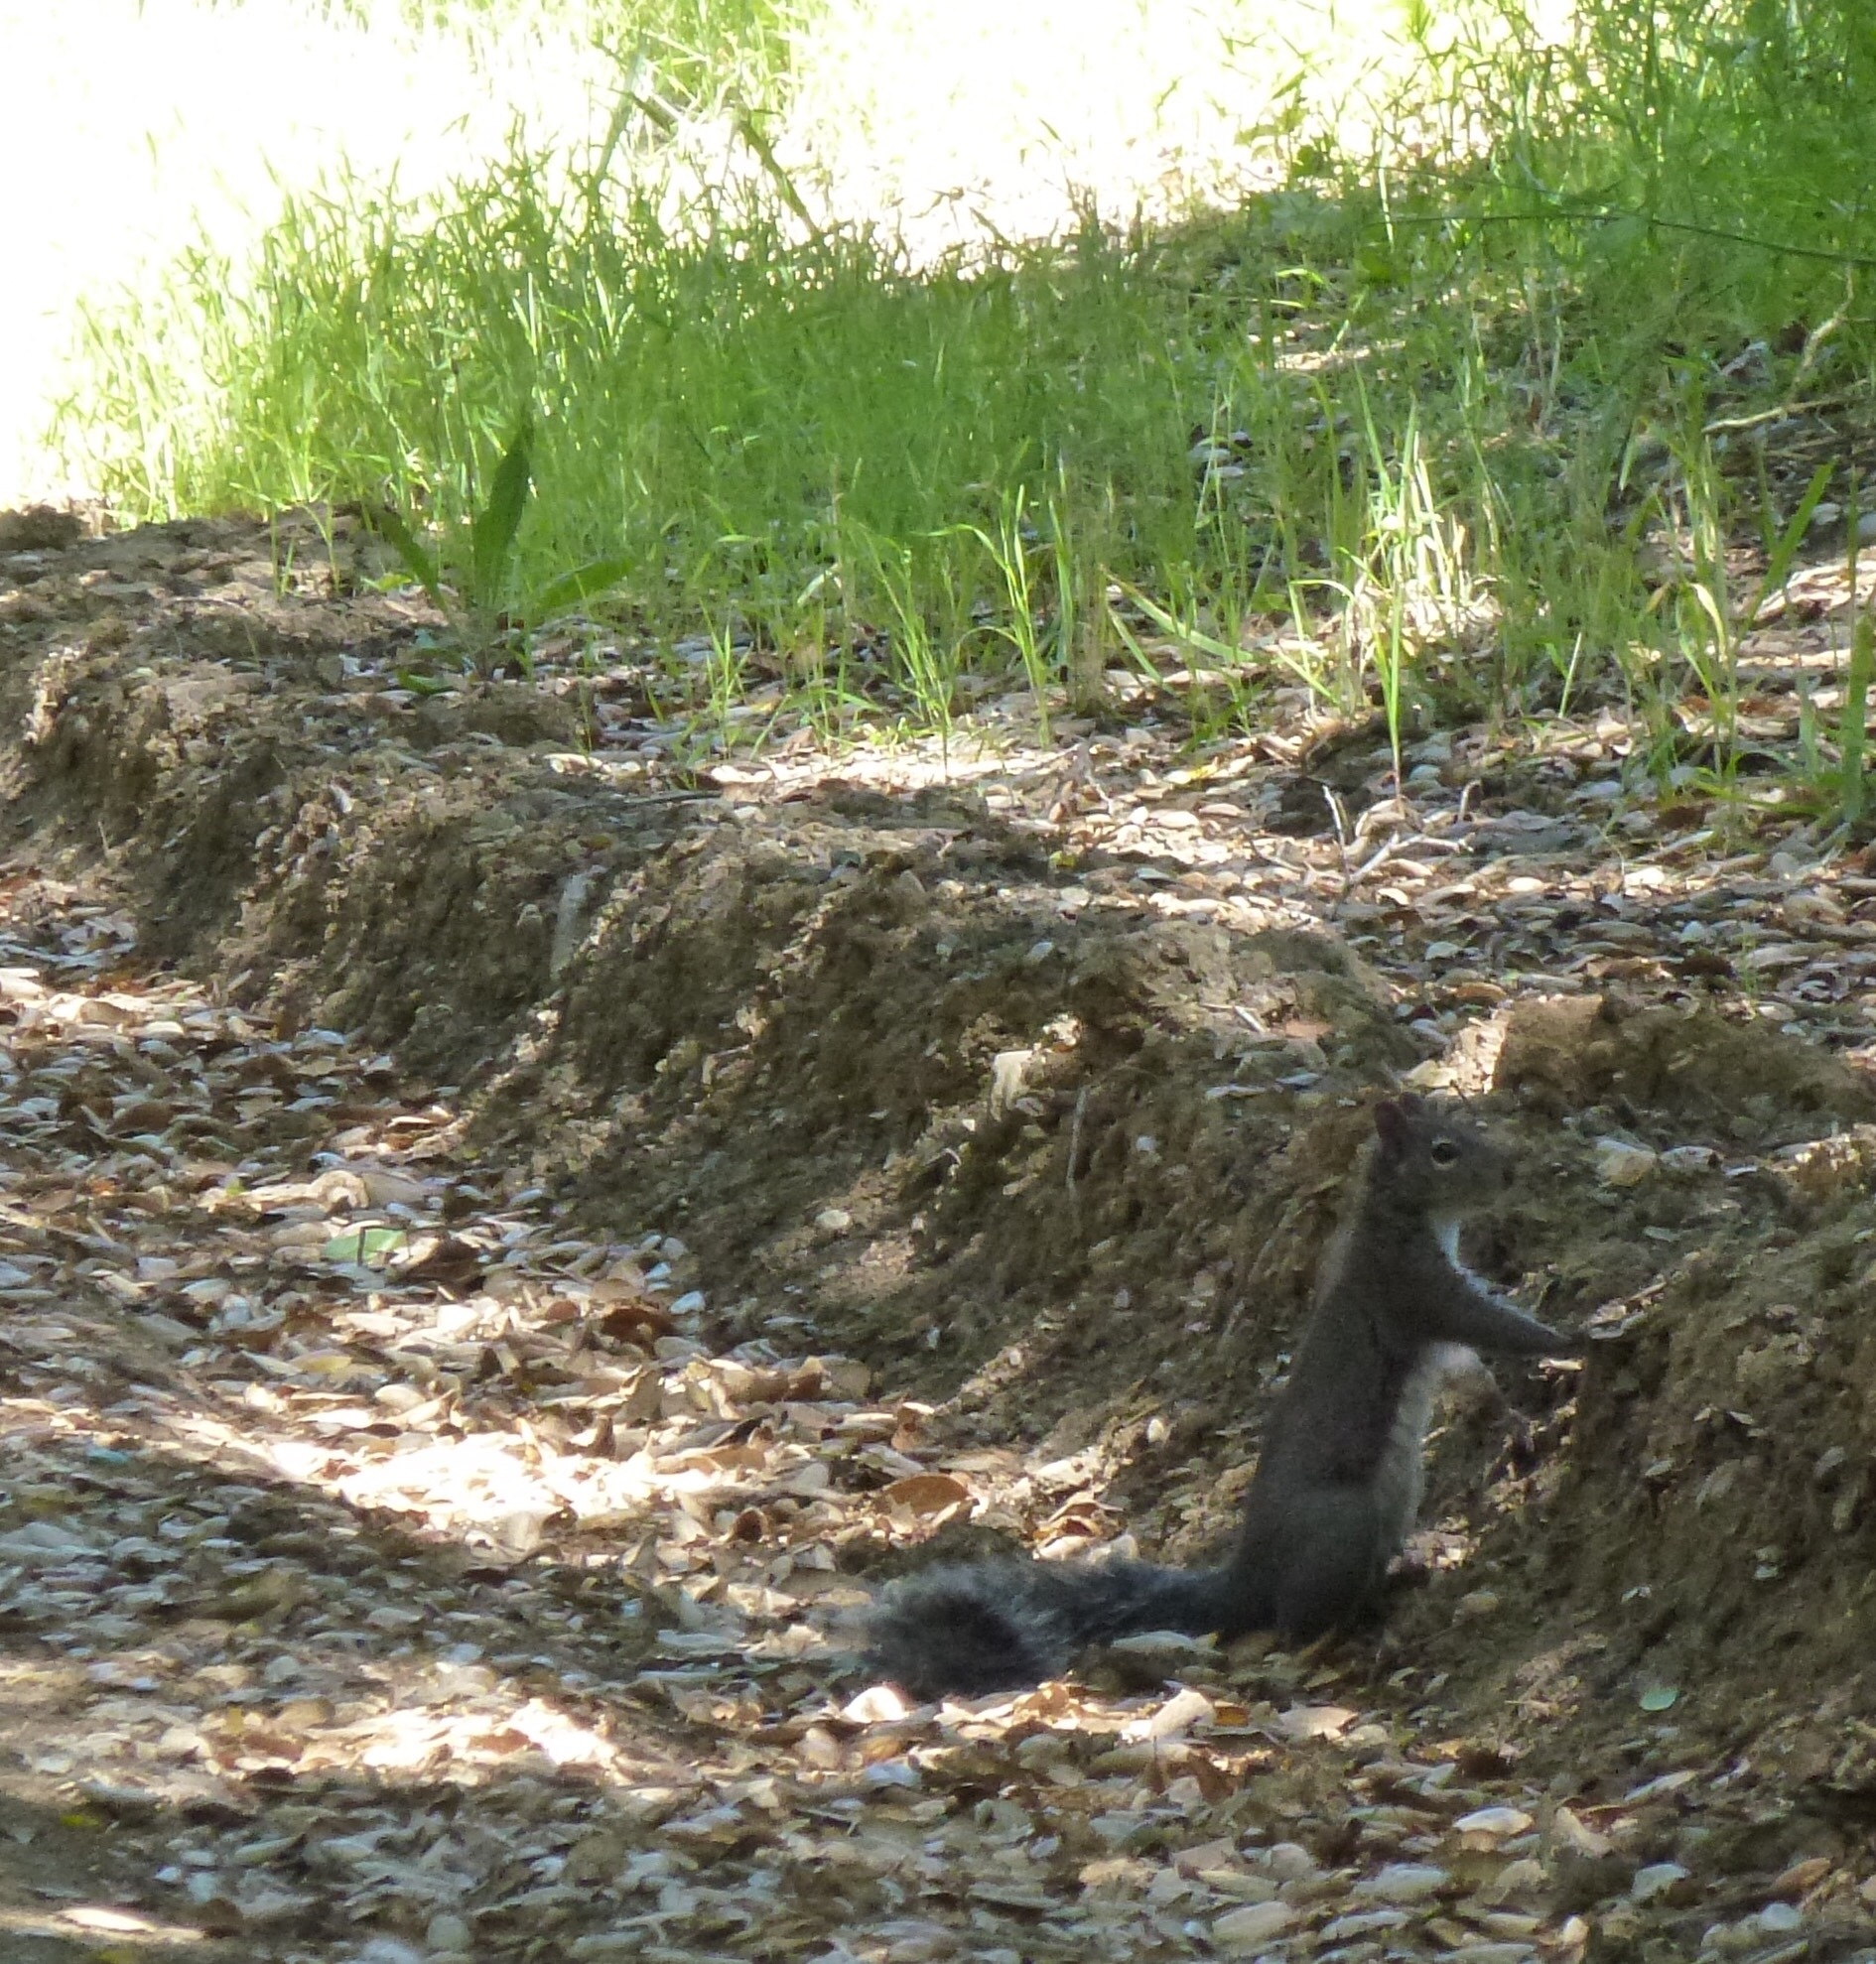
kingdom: Animalia
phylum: Chordata
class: Mammalia
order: Rodentia
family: Sciuridae
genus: Sciurus
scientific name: Sciurus griseus
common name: Western gray squirrel
